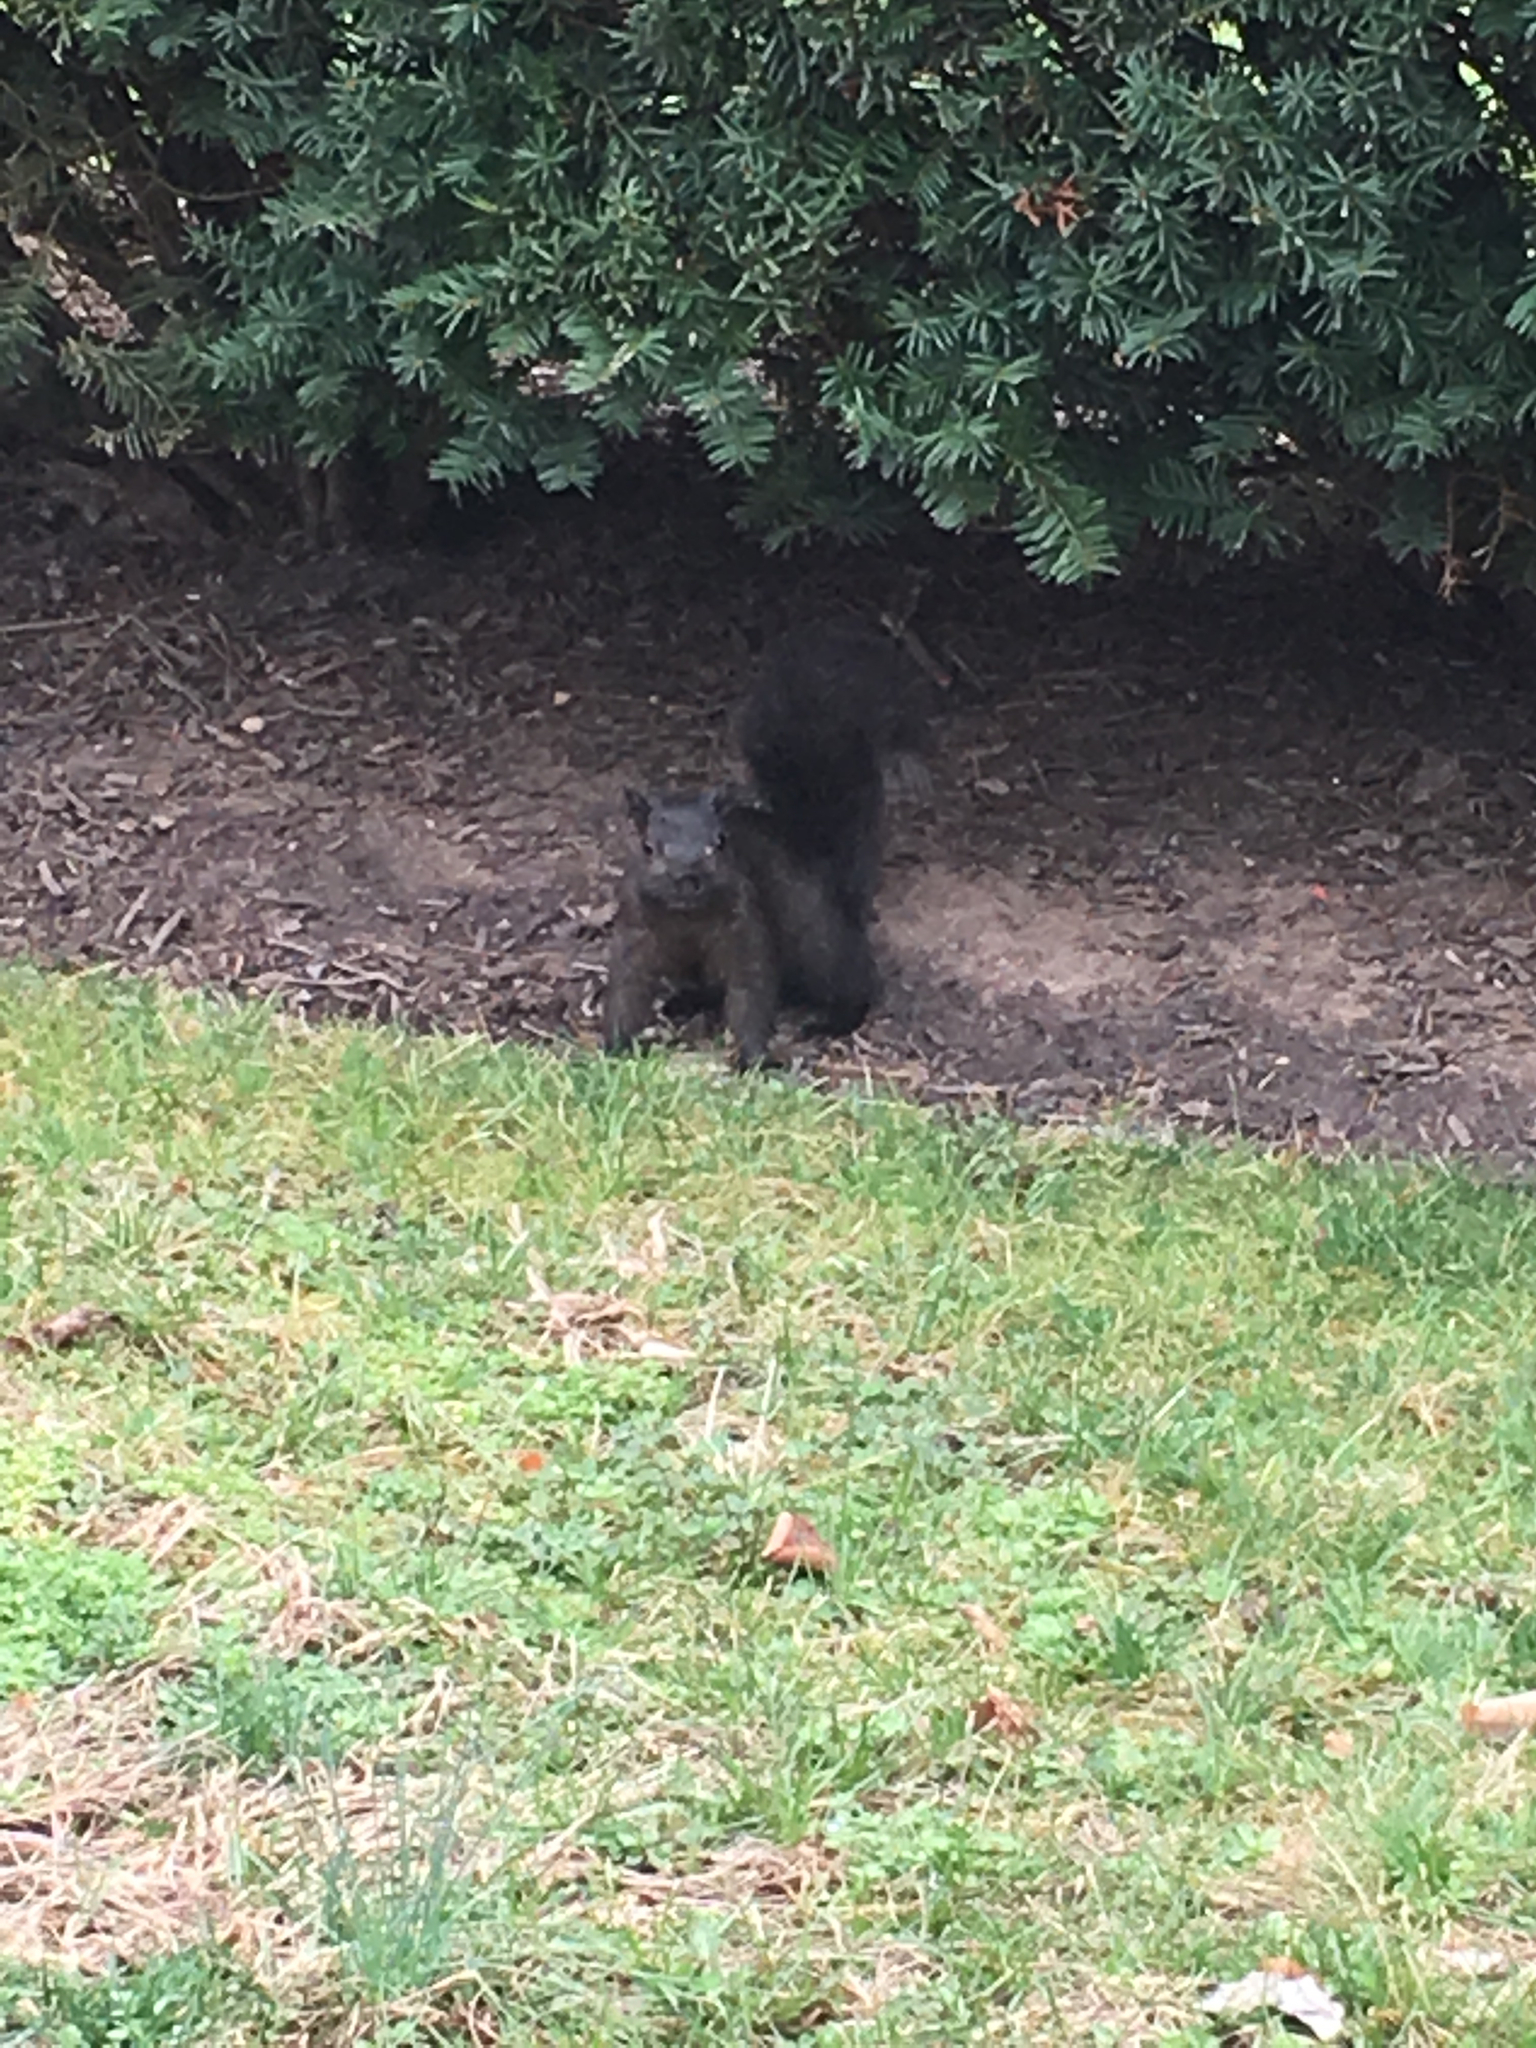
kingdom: Animalia
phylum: Chordata
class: Mammalia
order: Rodentia
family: Sciuridae
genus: Sciurus
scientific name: Sciurus carolinensis
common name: Eastern gray squirrel
